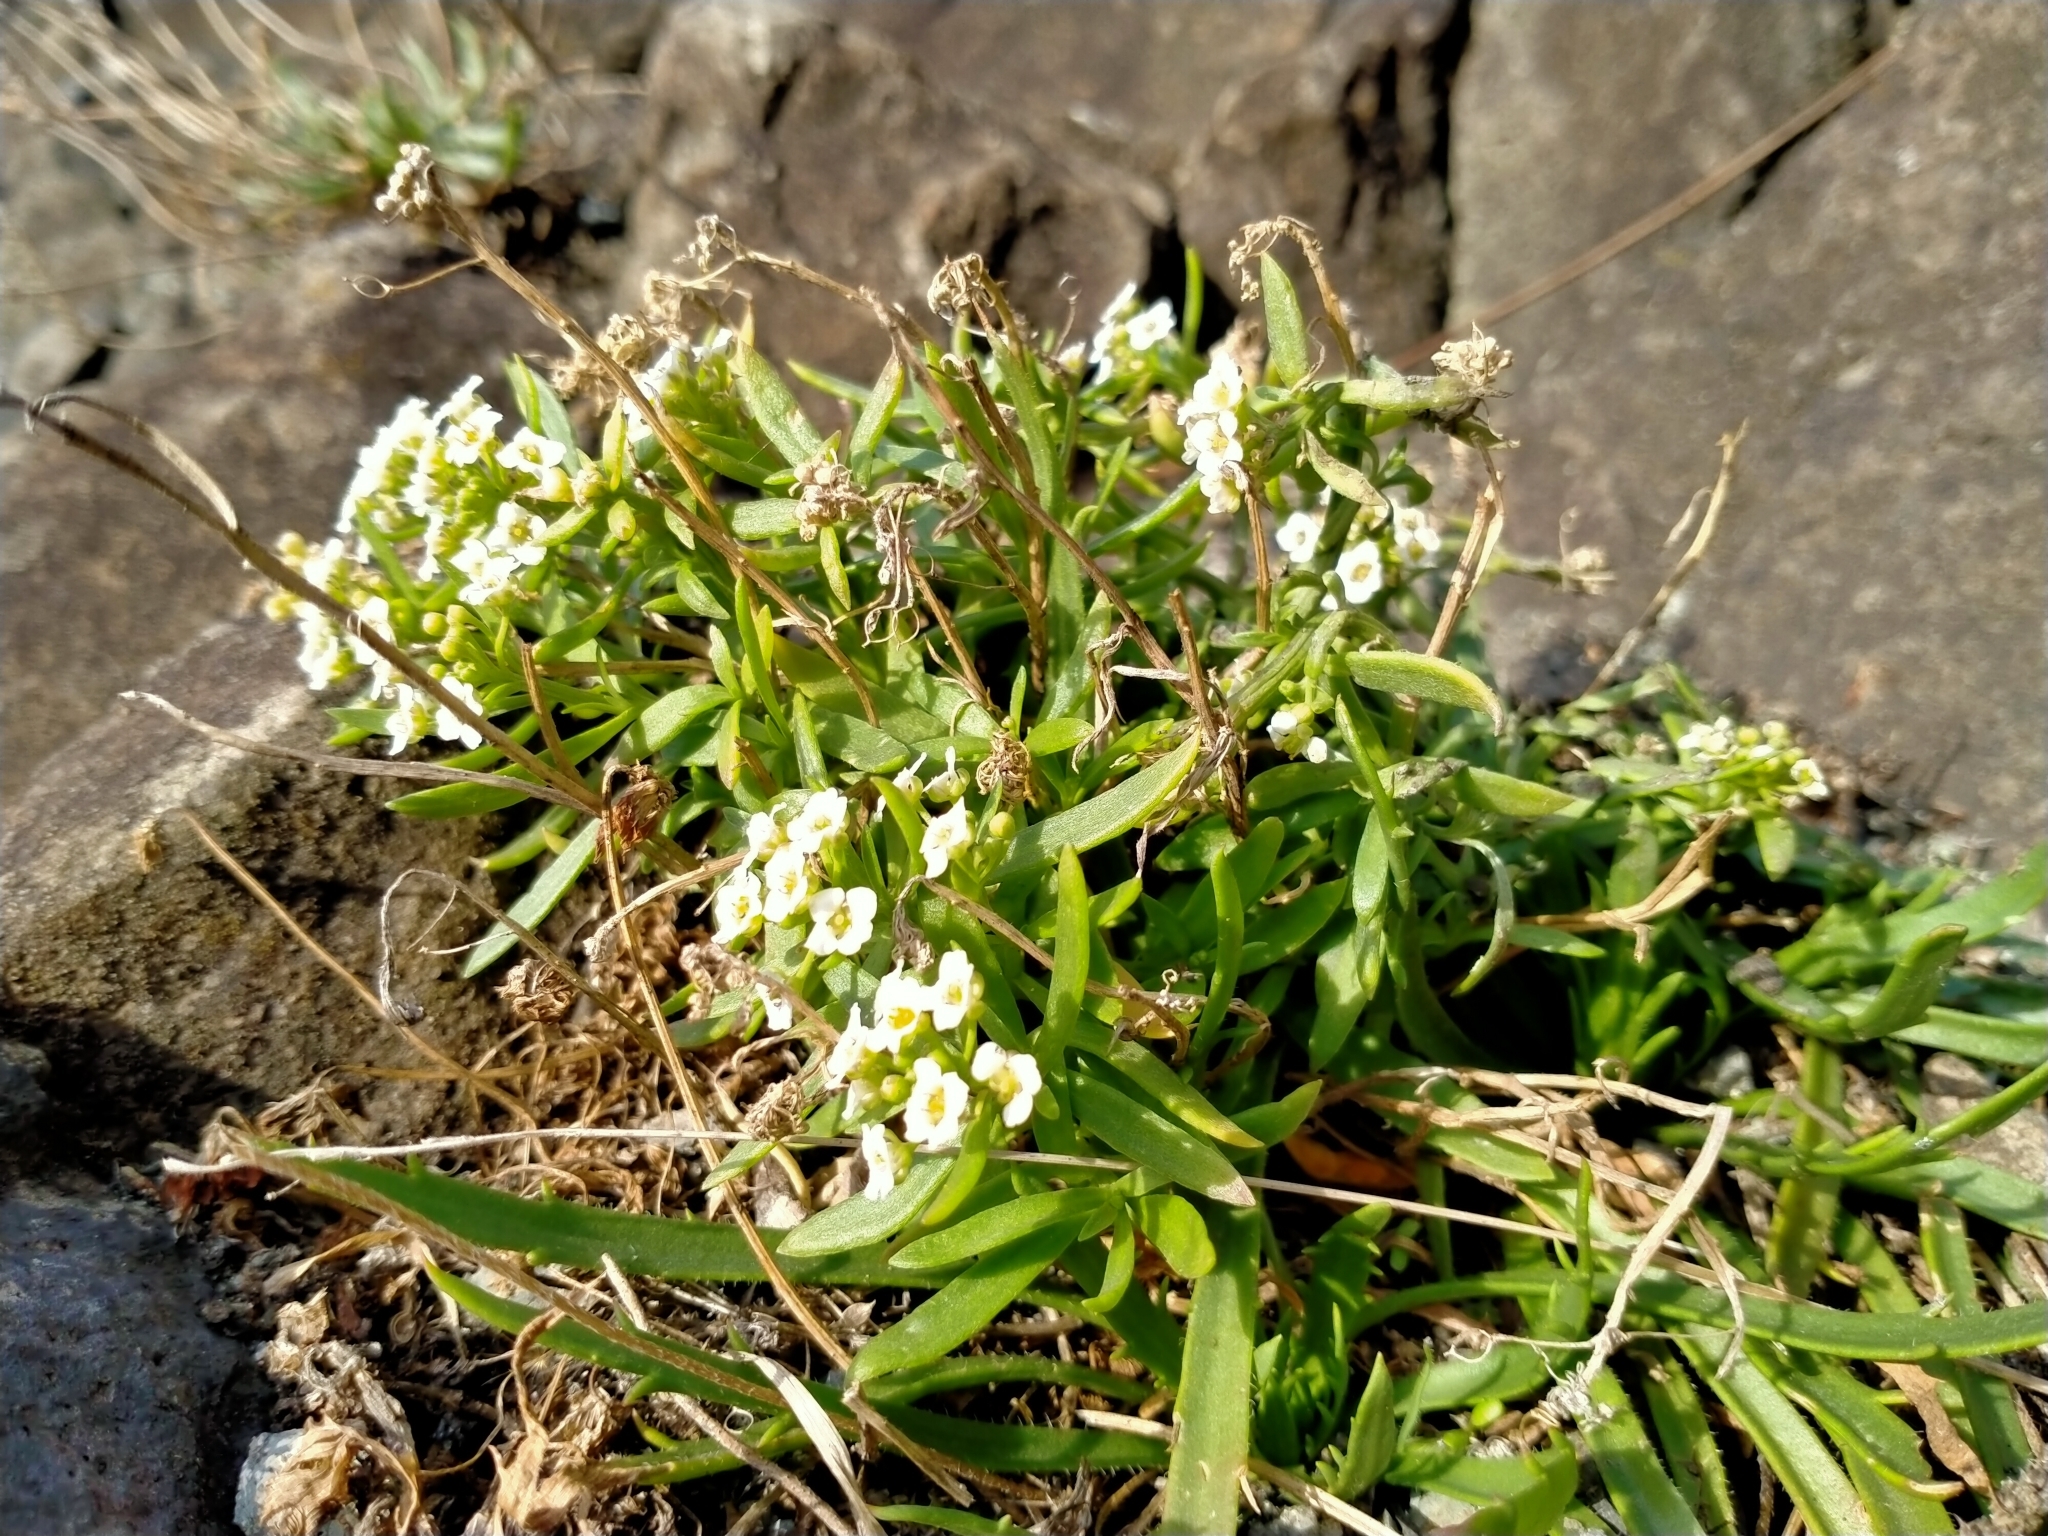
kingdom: Plantae
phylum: Tracheophyta
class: Magnoliopsida
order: Brassicales
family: Brassicaceae
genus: Lobularia
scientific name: Lobularia maritima
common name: Sweet alison
